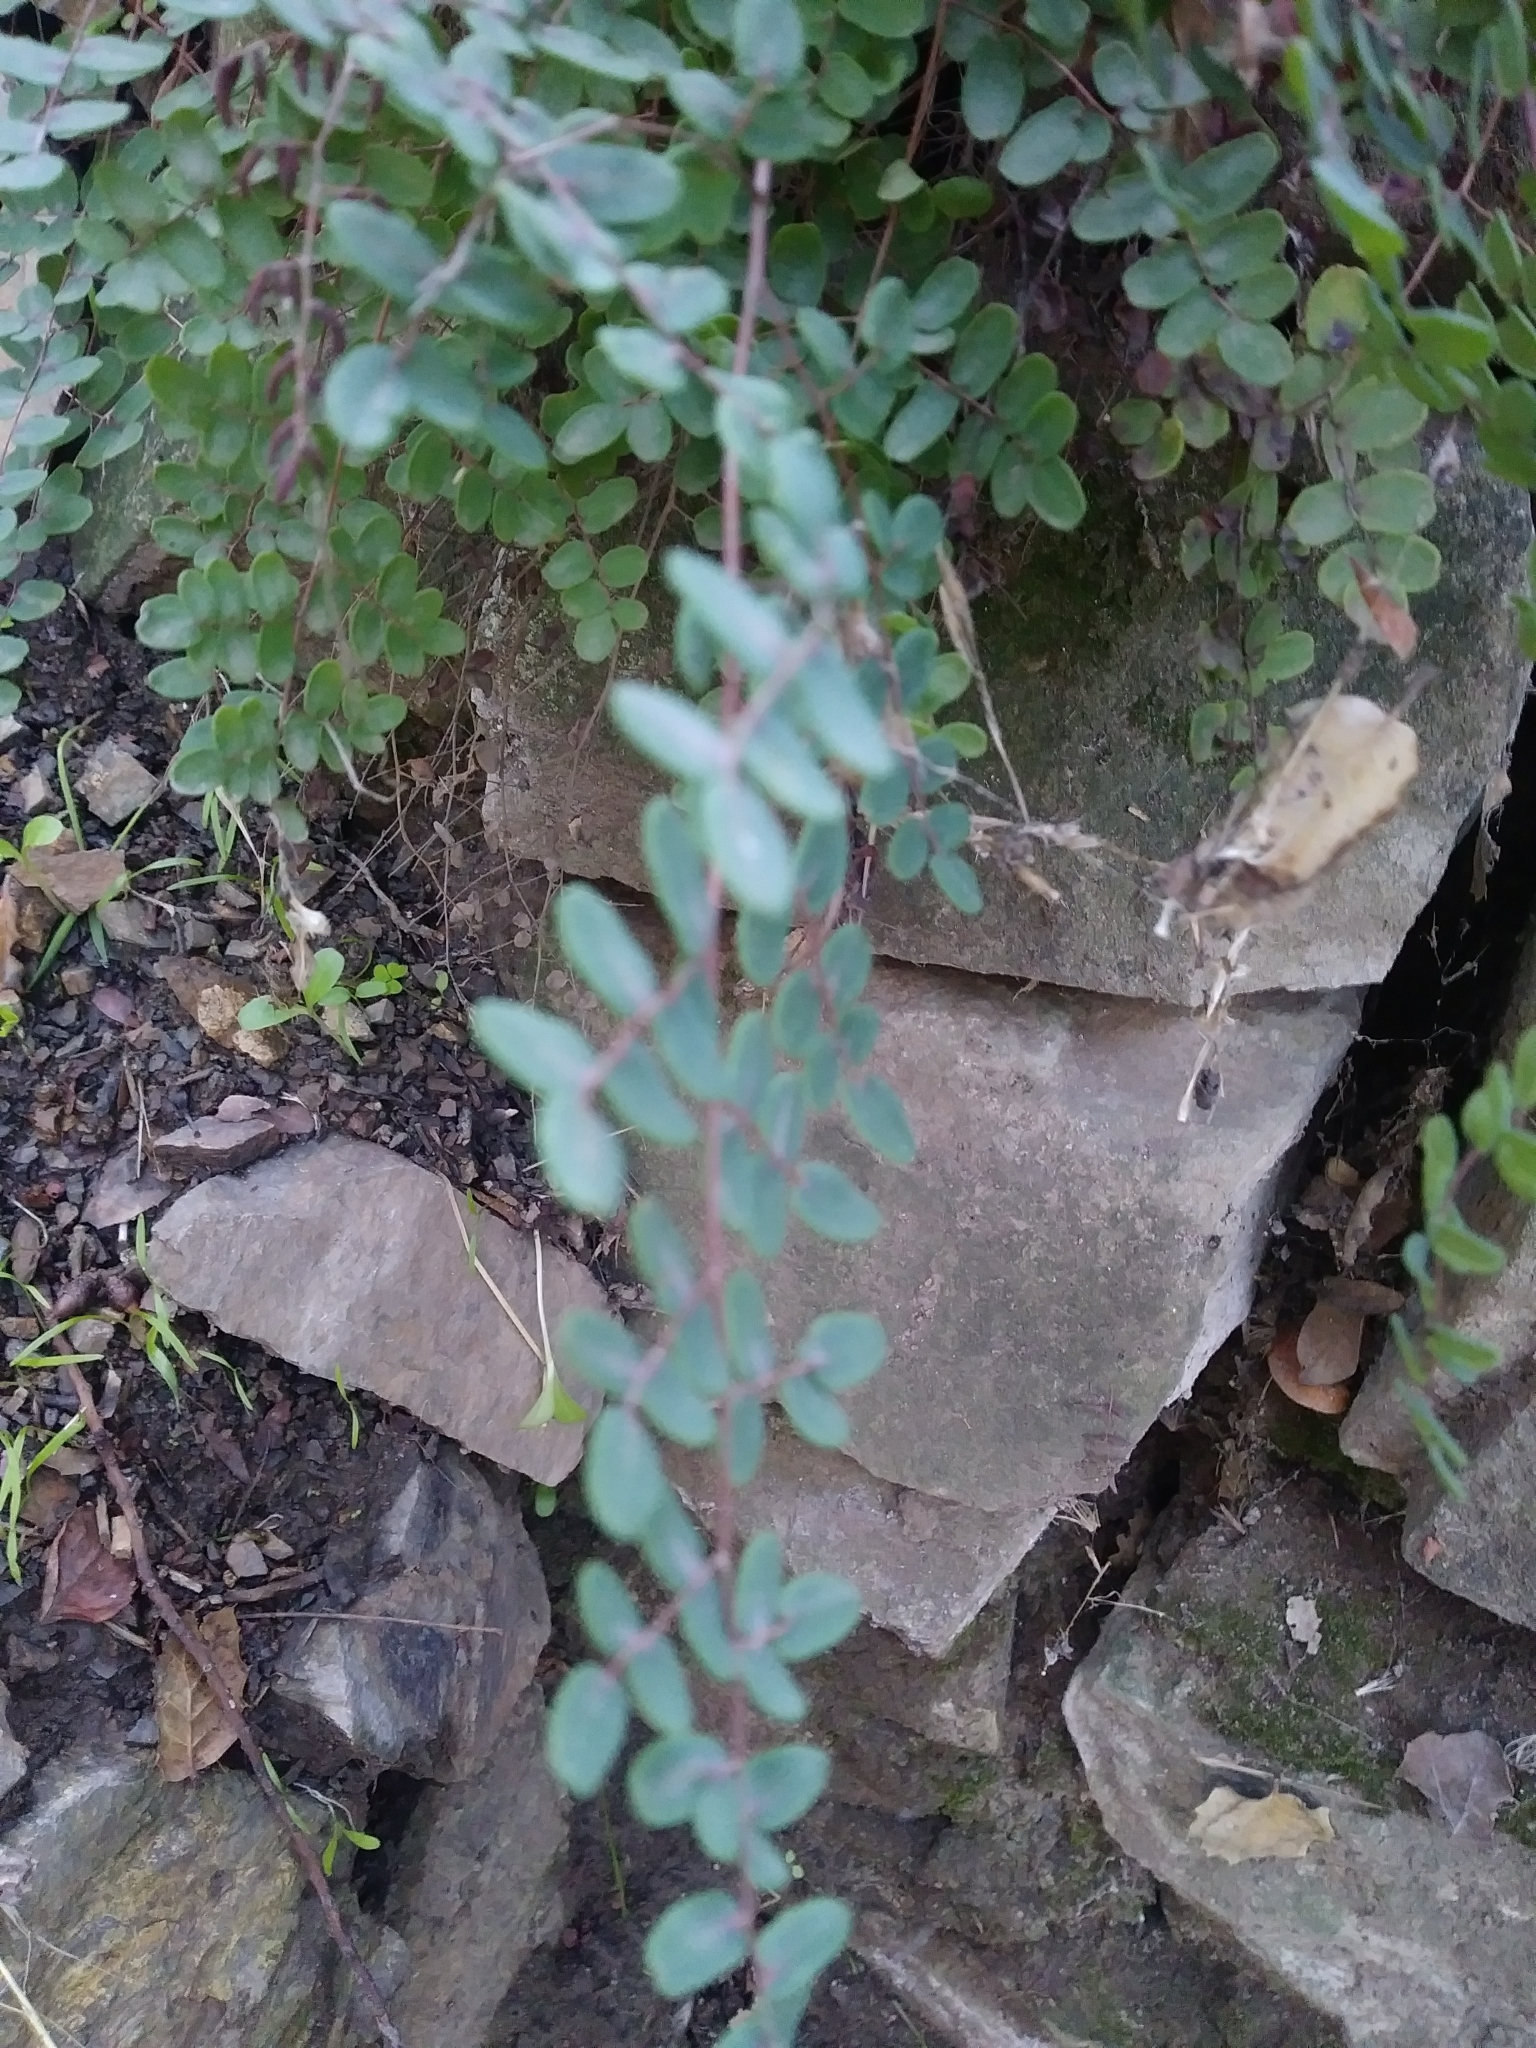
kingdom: Plantae
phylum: Tracheophyta
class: Polypodiopsida
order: Polypodiales
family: Pteridaceae
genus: Pellaea
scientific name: Pellaea andromedifolia
